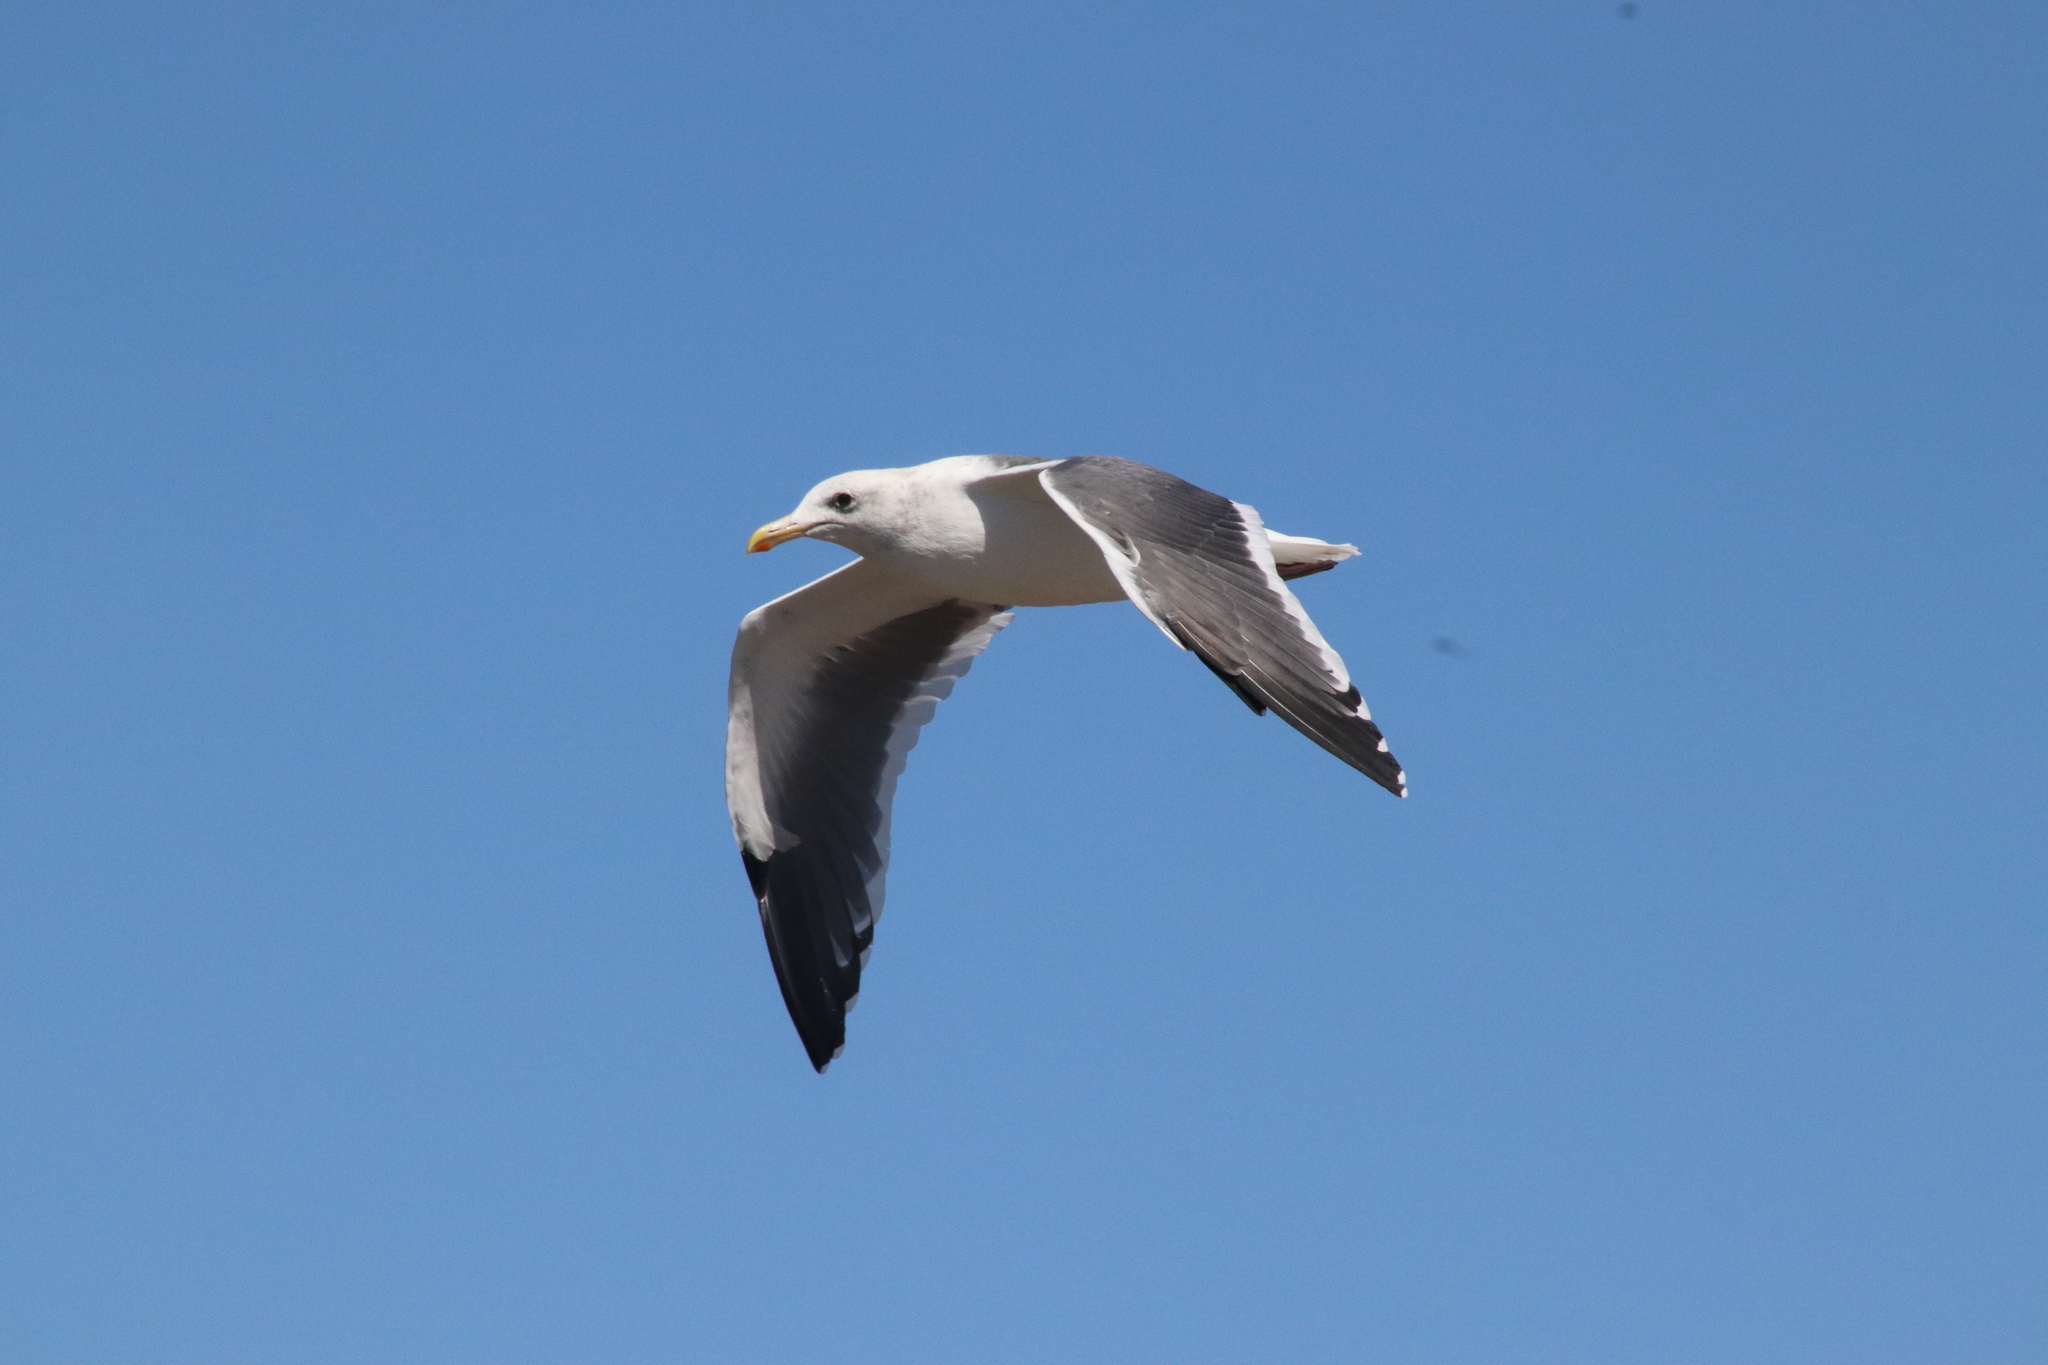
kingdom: Animalia
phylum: Chordata
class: Aves
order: Charadriiformes
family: Laridae
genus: Larus
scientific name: Larus occidentalis
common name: Western gull
